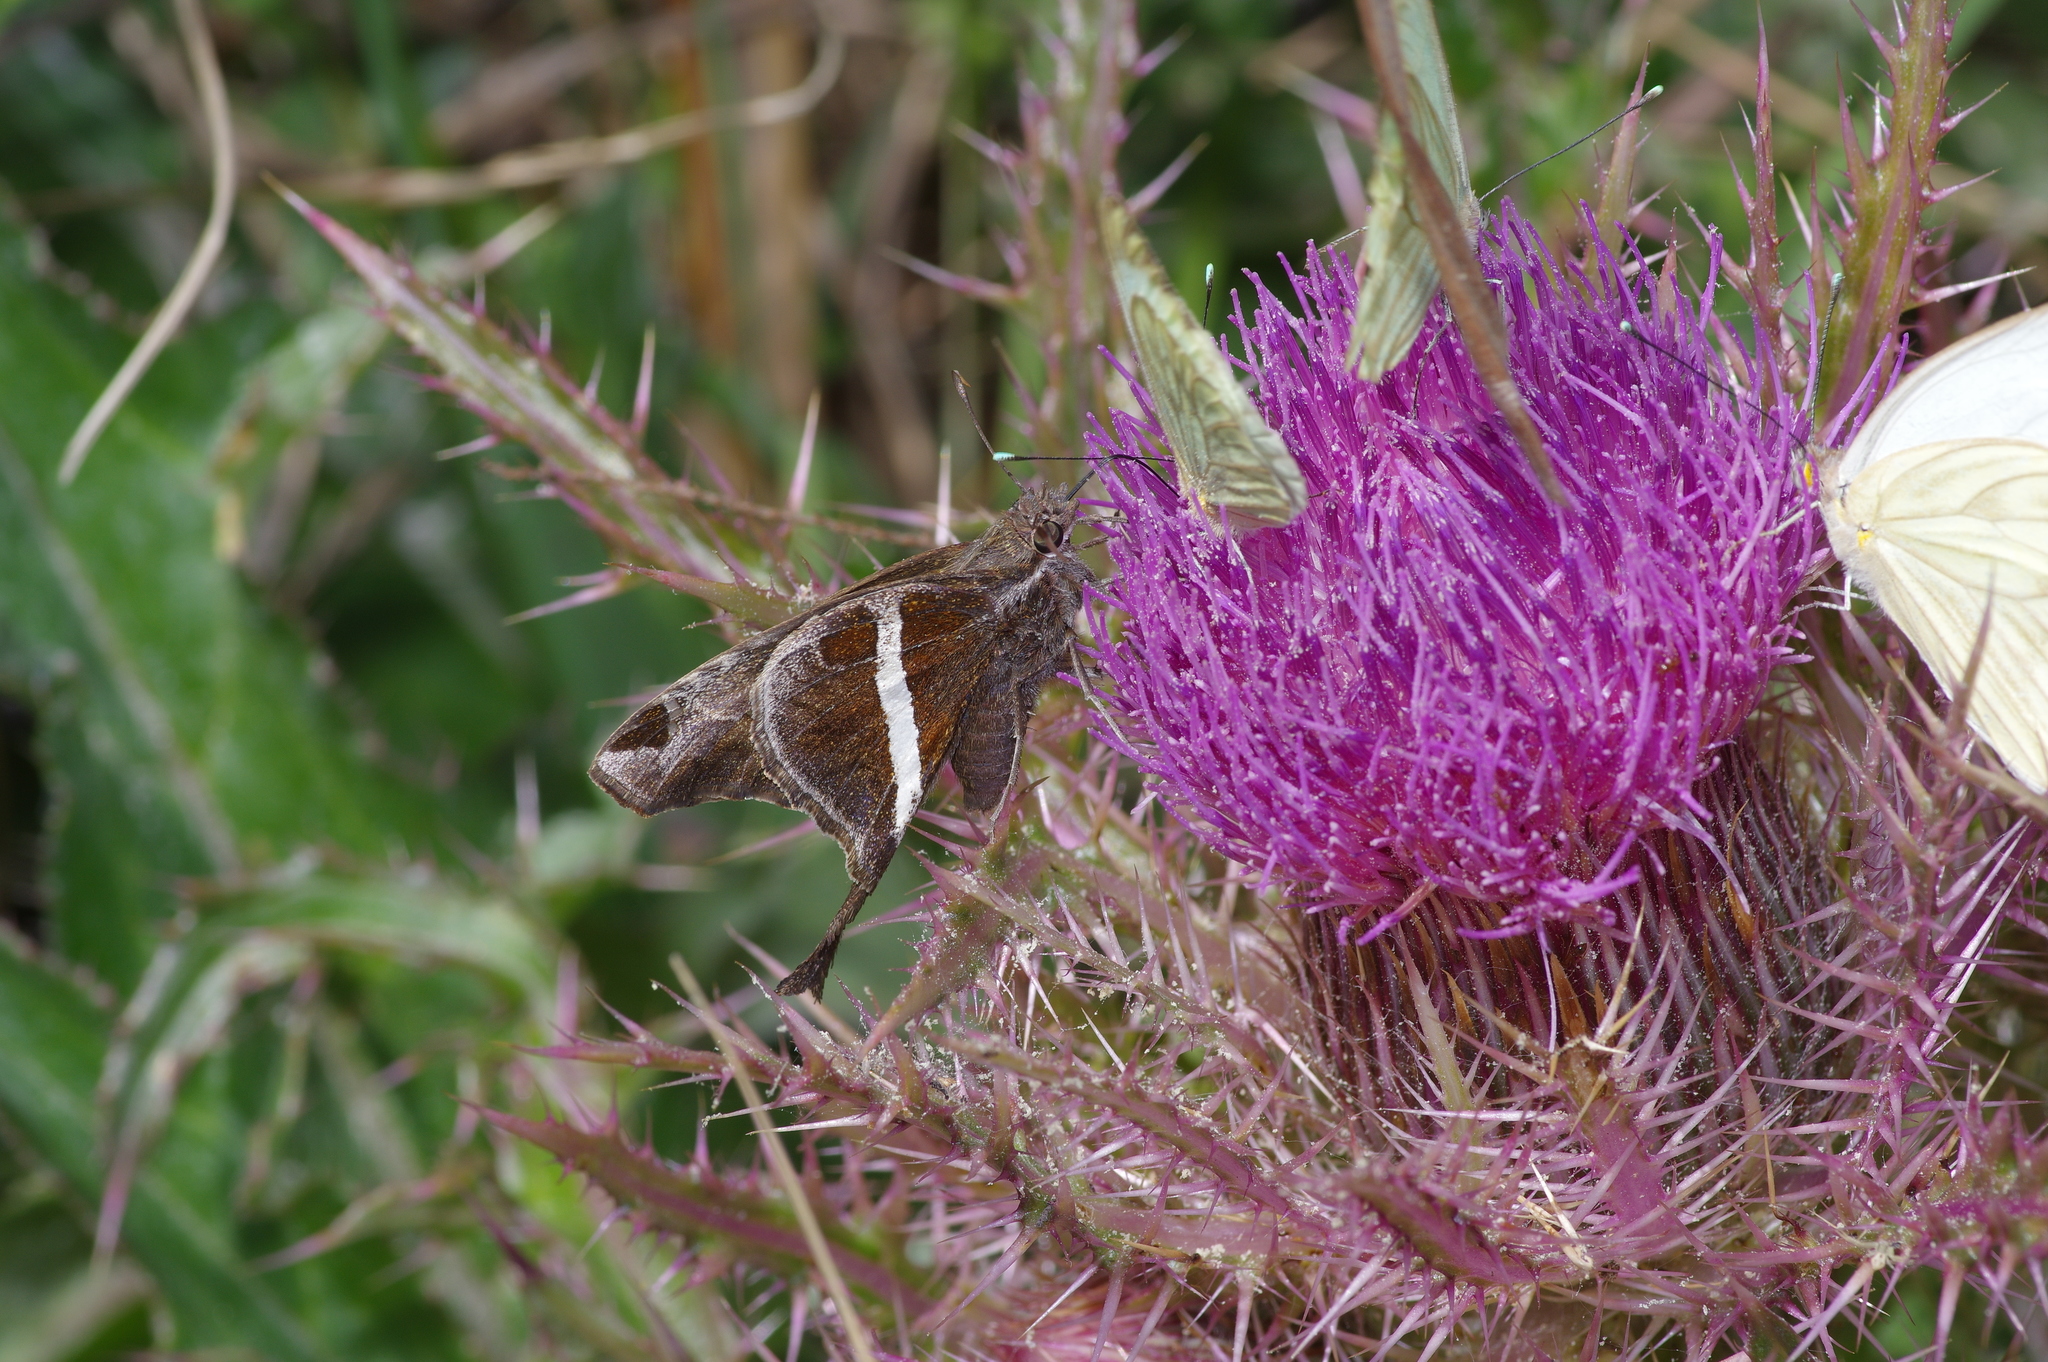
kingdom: Animalia
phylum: Arthropoda
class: Insecta
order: Lepidoptera
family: Hesperiidae
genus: Chioides
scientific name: Chioides catillus
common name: Silverbanded skipper
